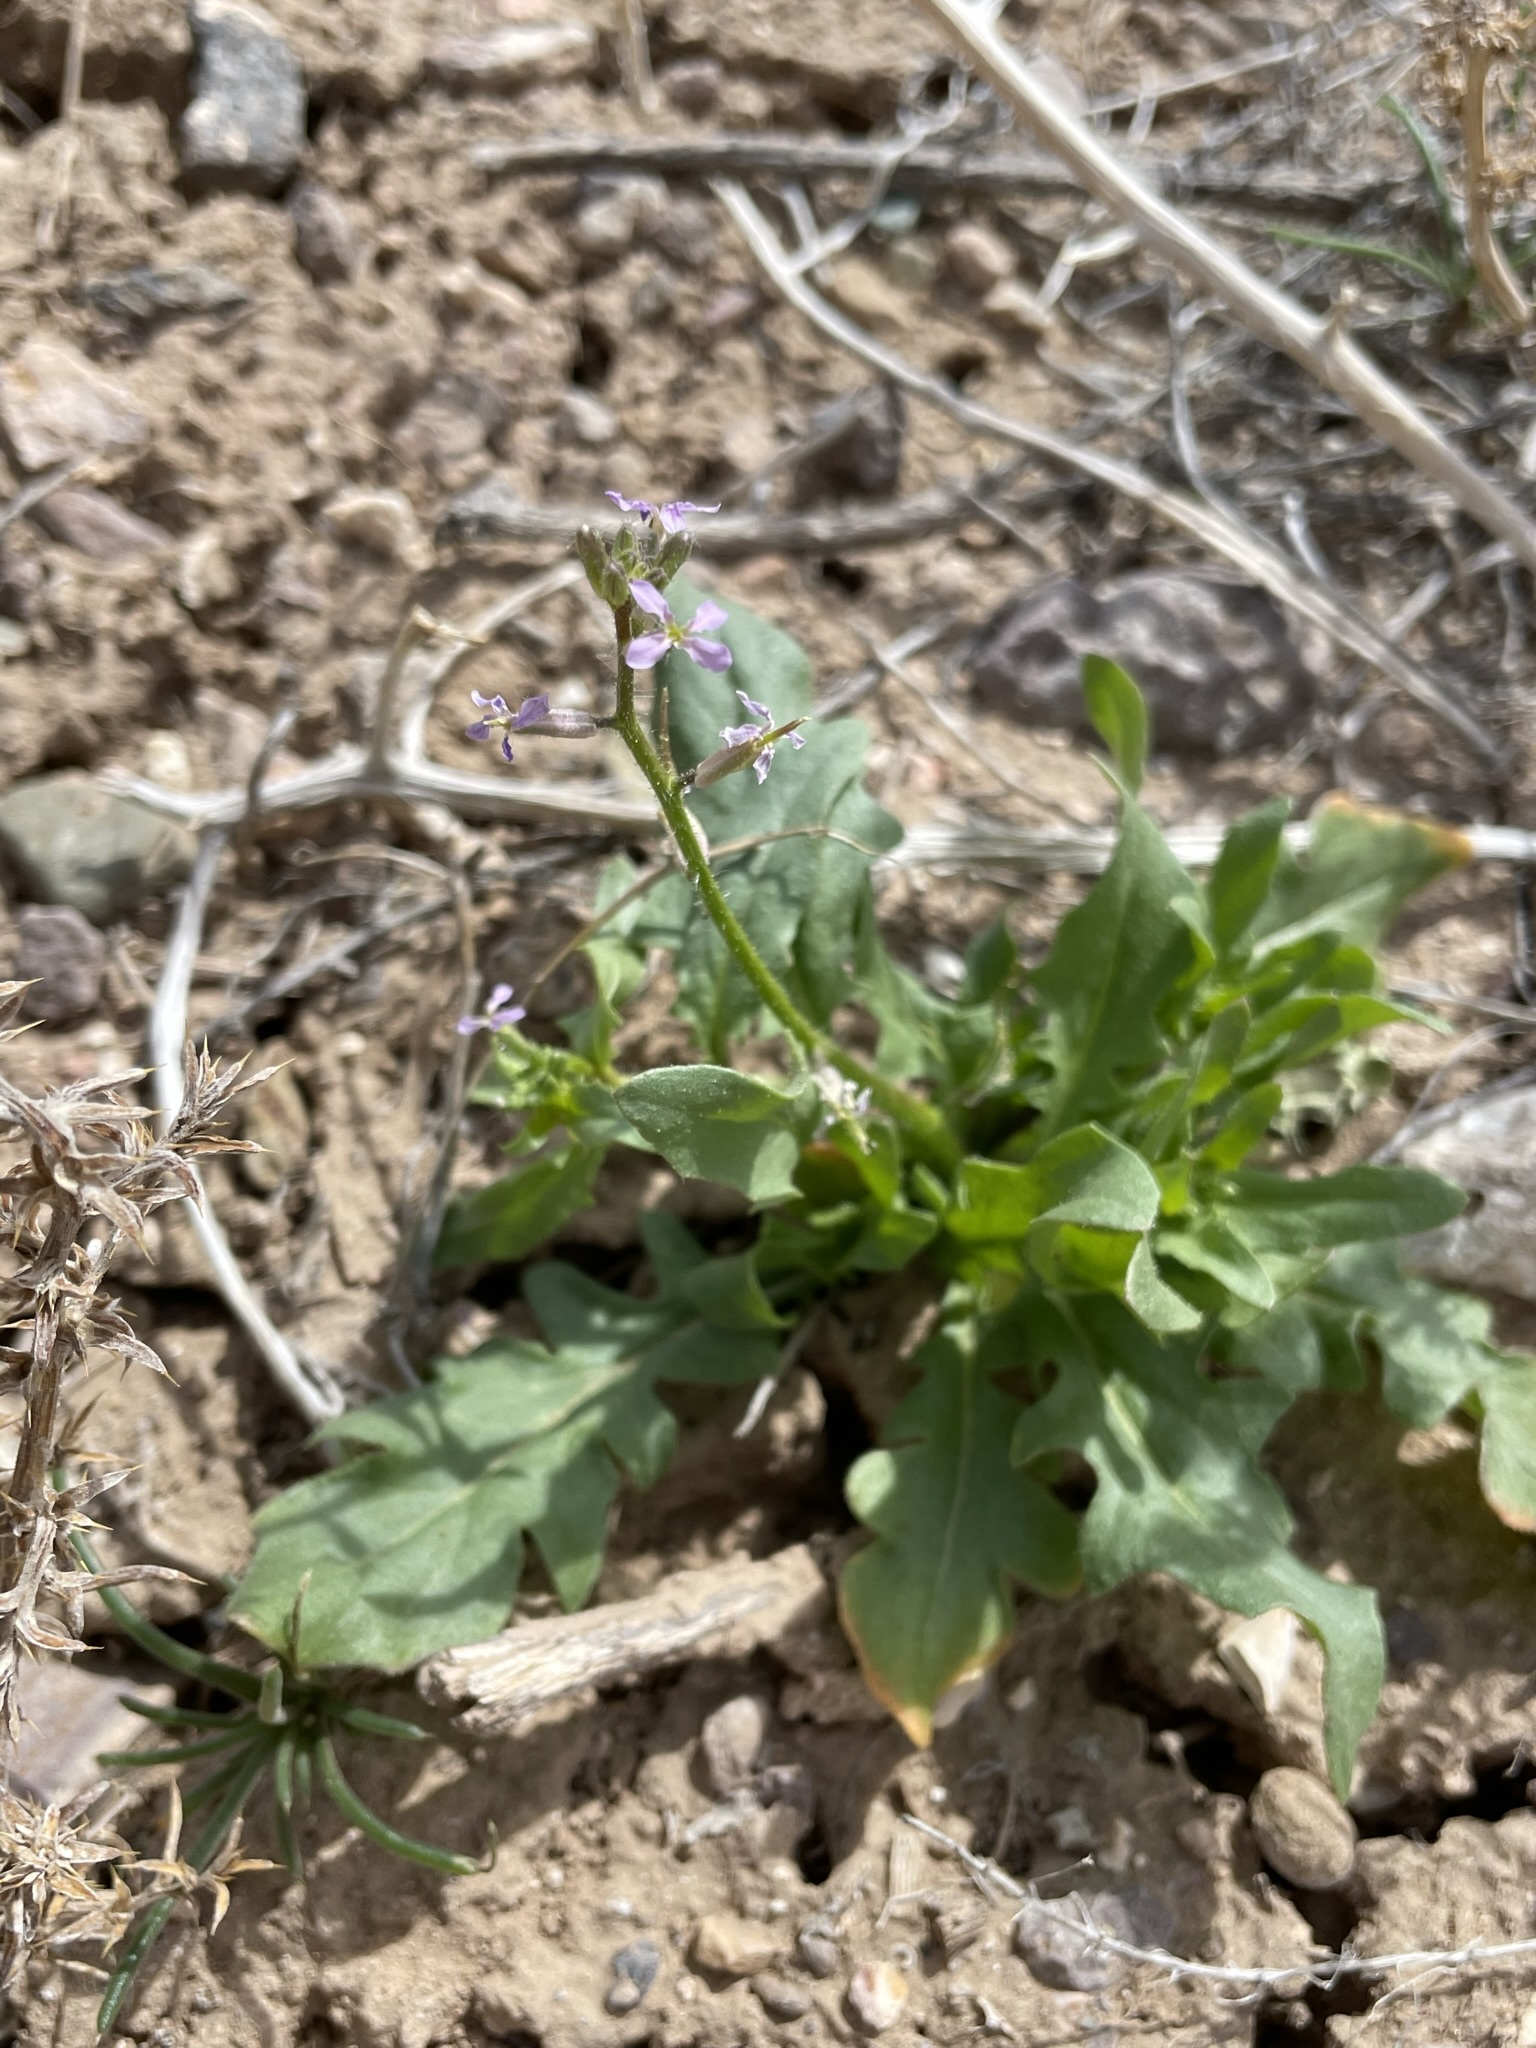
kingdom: Plantae
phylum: Tracheophyta
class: Magnoliopsida
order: Brassicales
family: Brassicaceae
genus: Chorispora
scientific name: Chorispora tenella
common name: Crossflower
